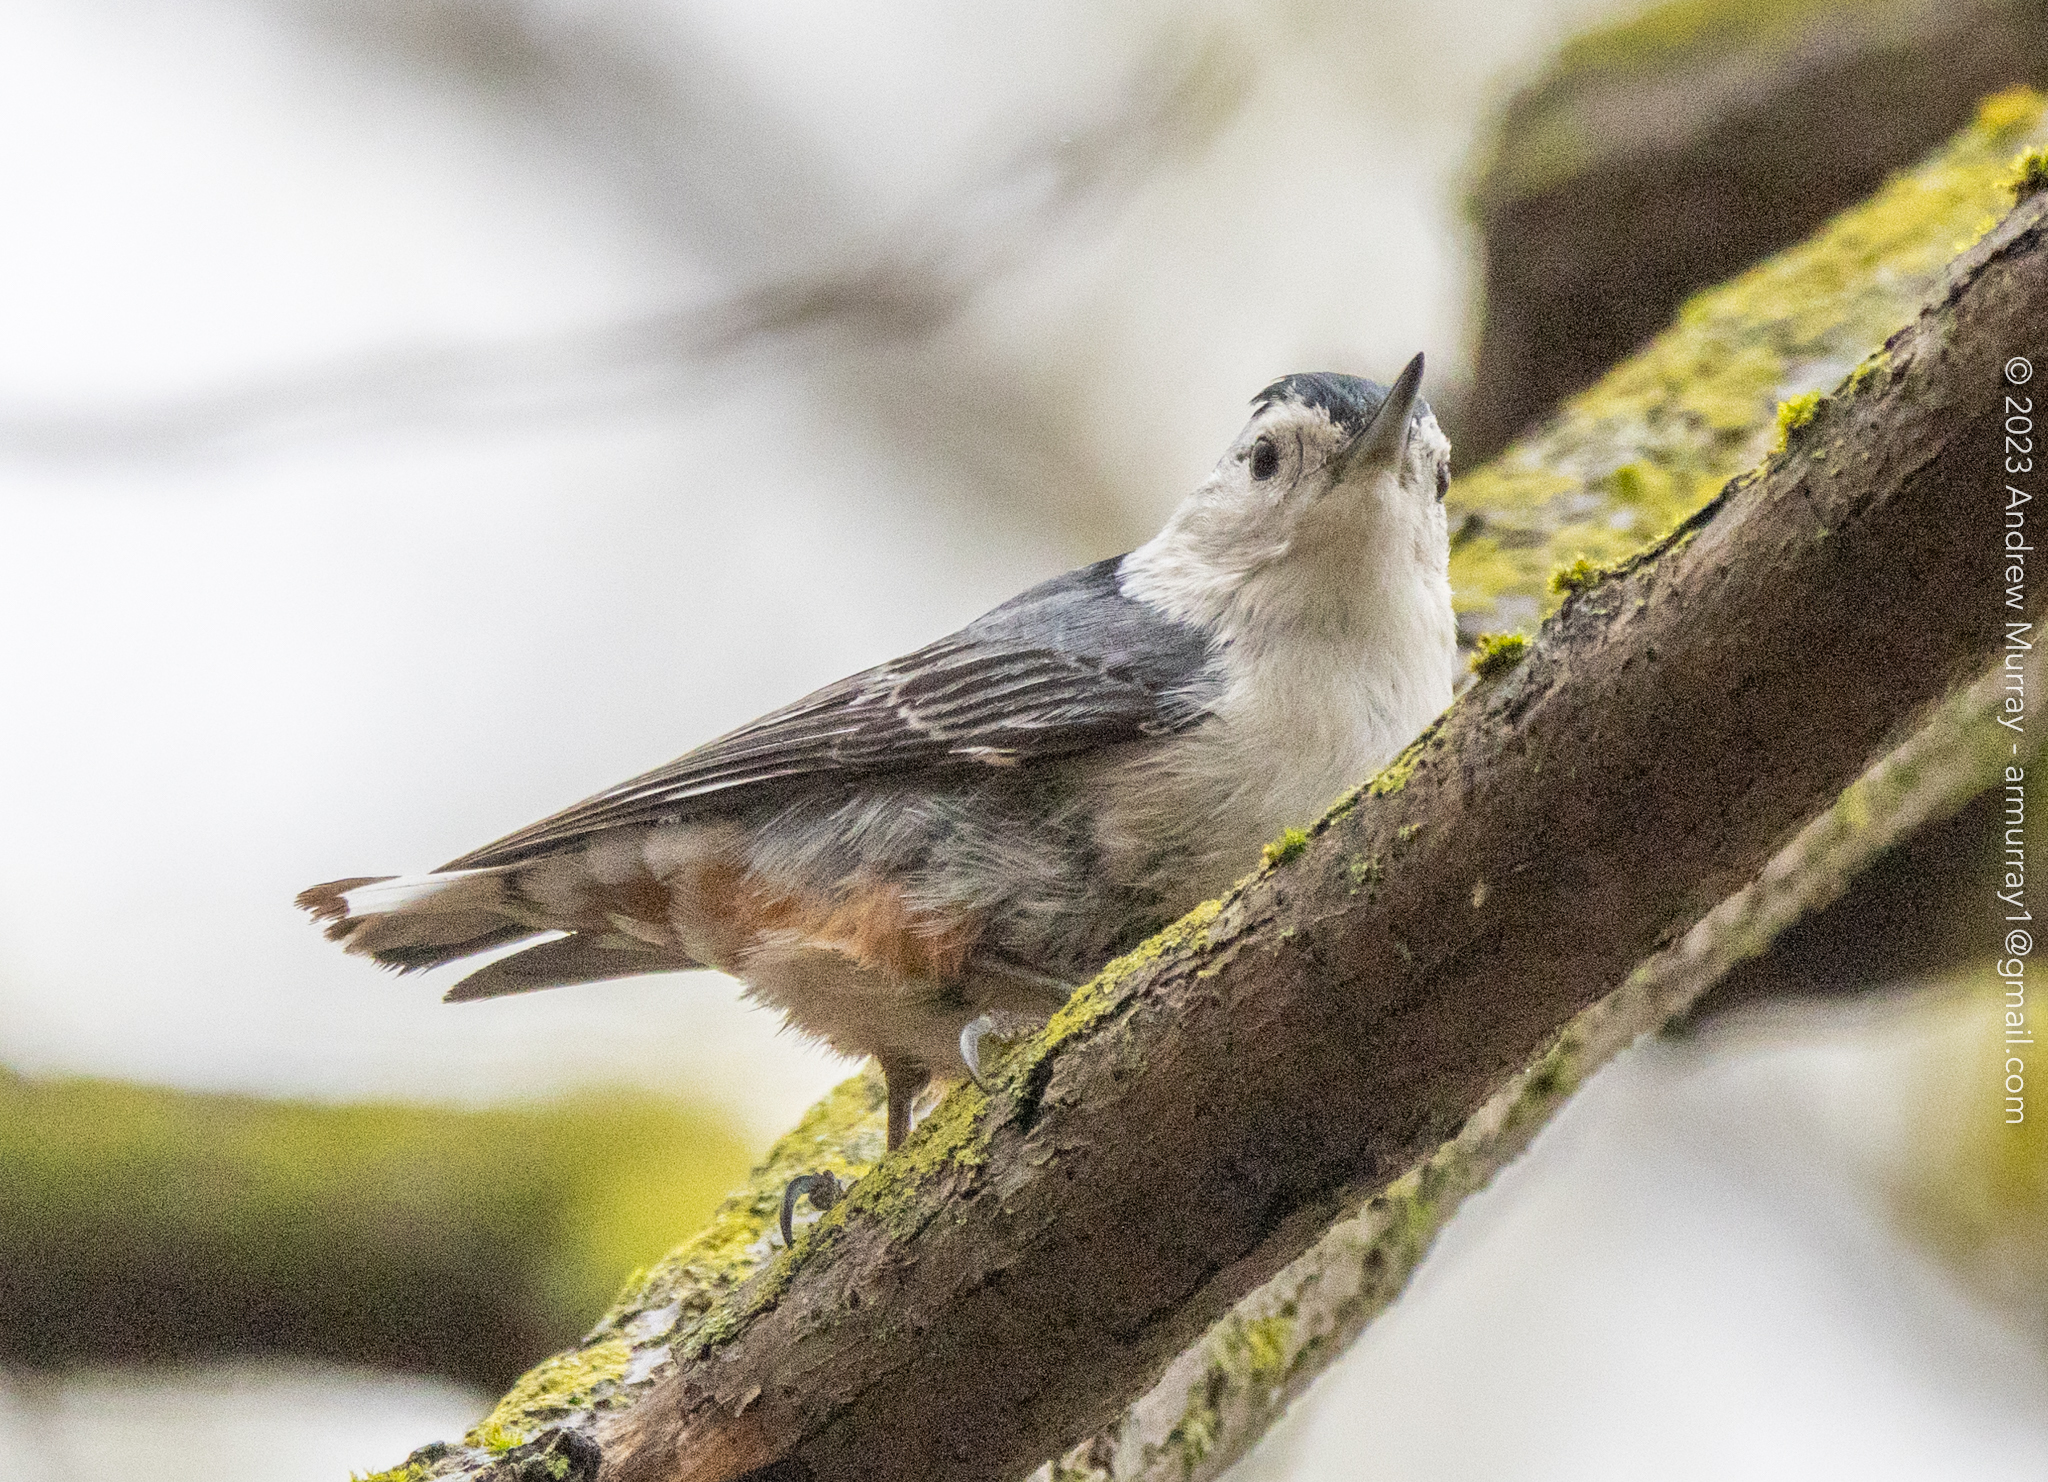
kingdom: Animalia
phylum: Chordata
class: Aves
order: Passeriformes
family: Sittidae
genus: Sitta
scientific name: Sitta carolinensis
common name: White-breasted nuthatch
